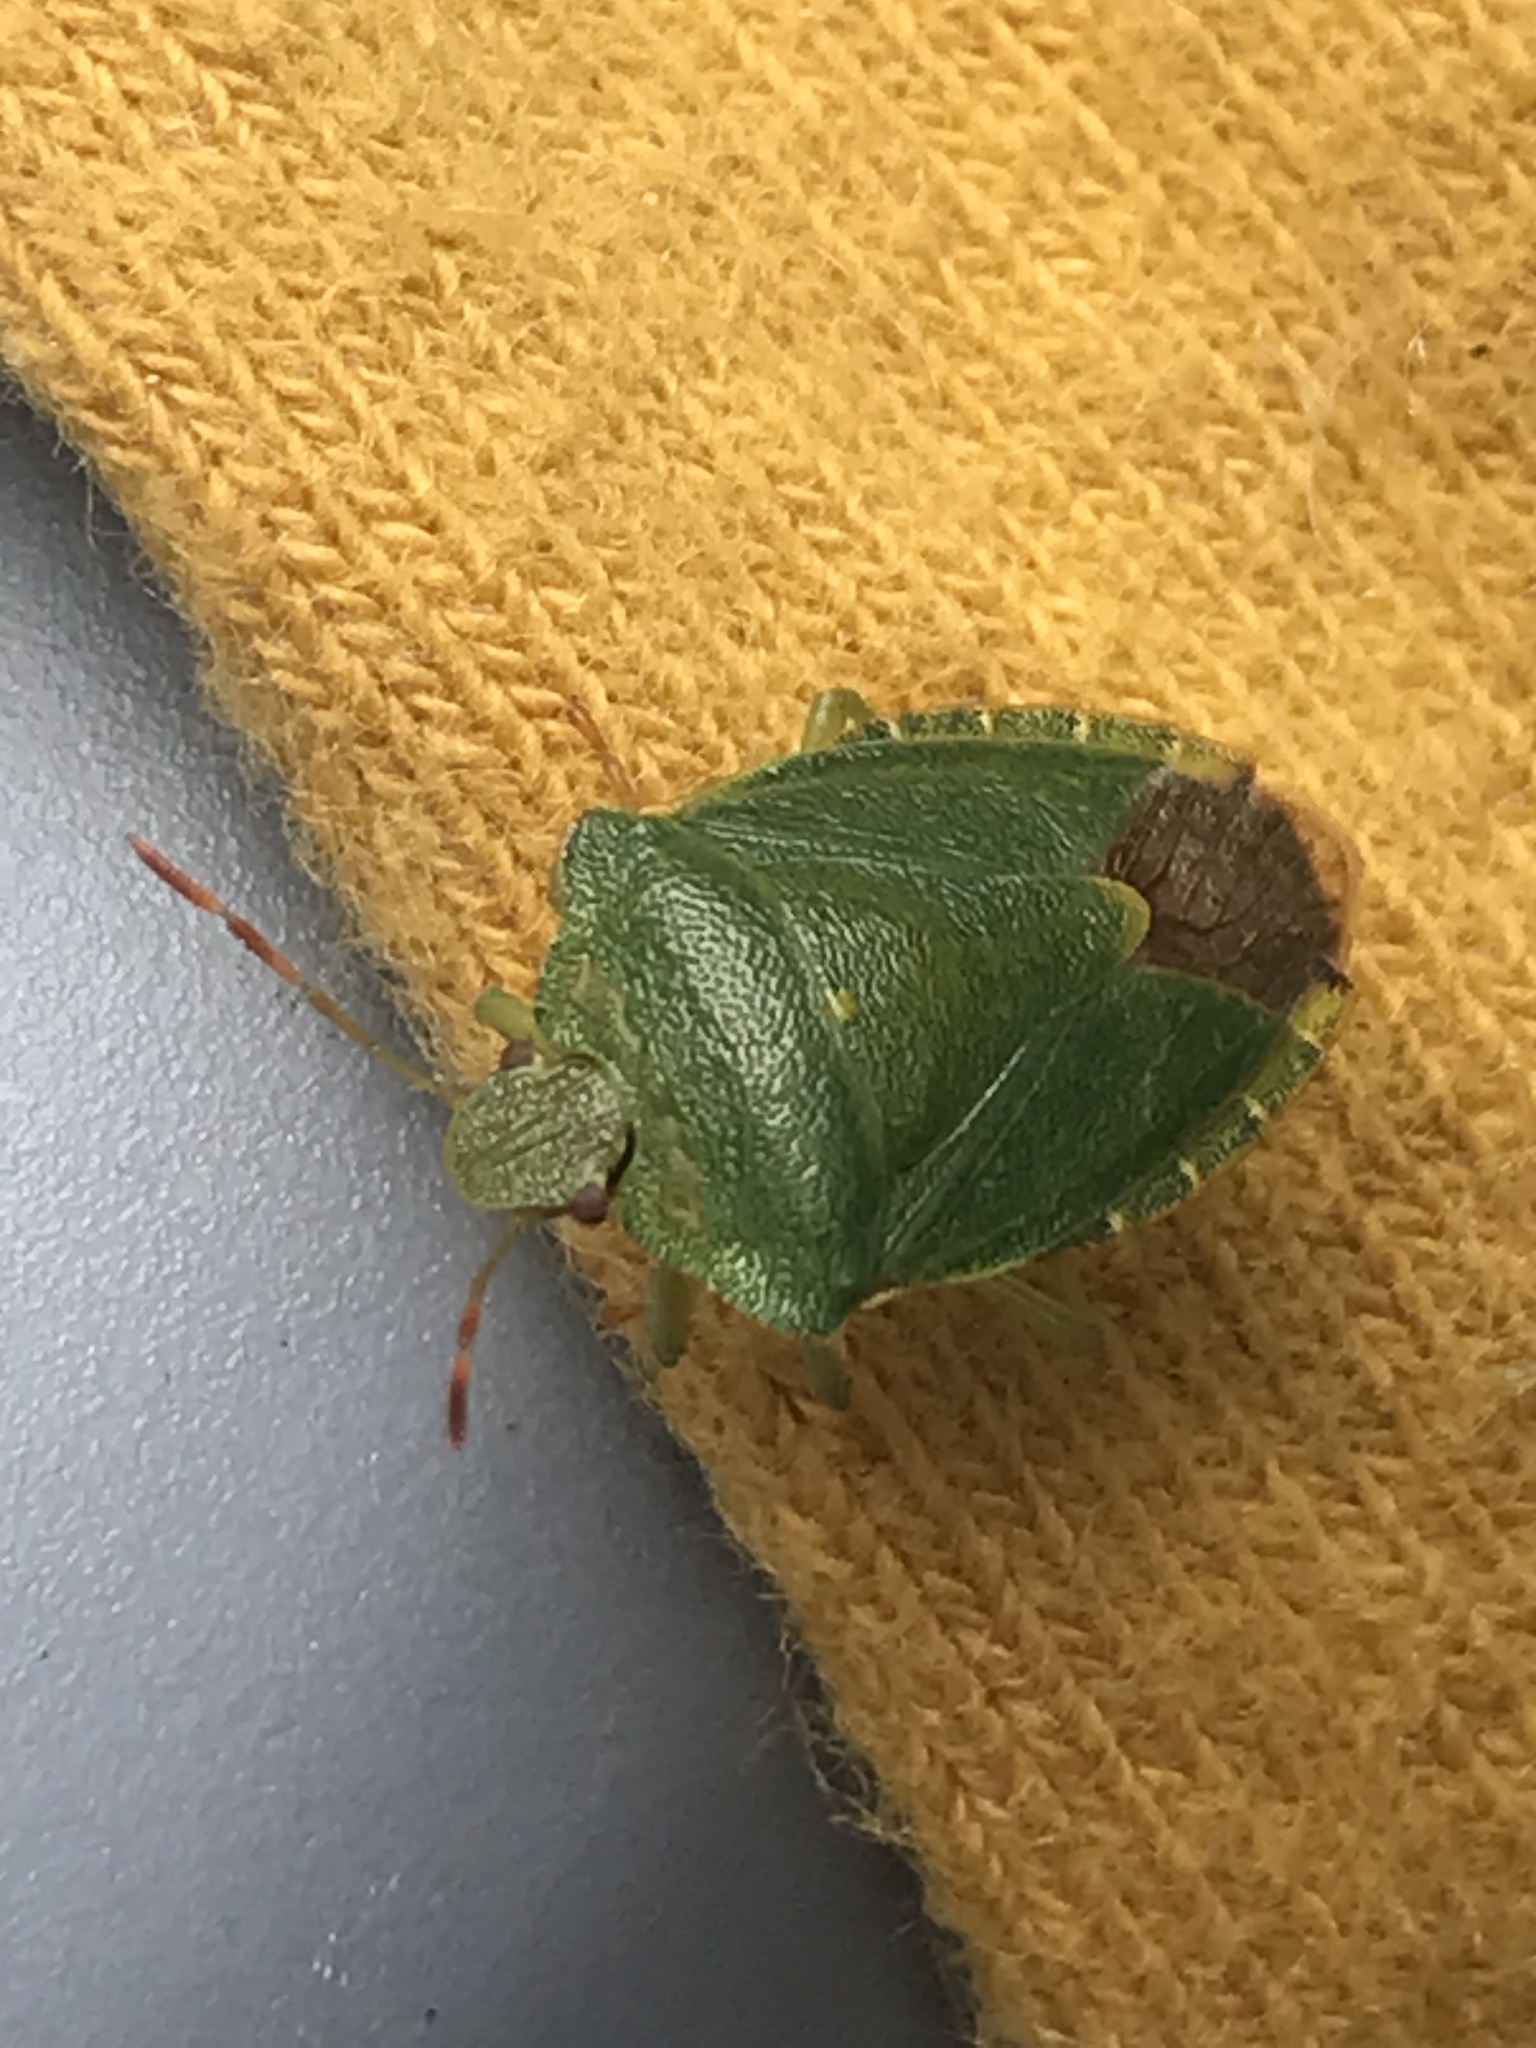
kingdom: Animalia
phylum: Arthropoda
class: Insecta
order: Hemiptera
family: Pentatomidae
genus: Palomena
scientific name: Palomena prasina
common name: Green shieldbug
